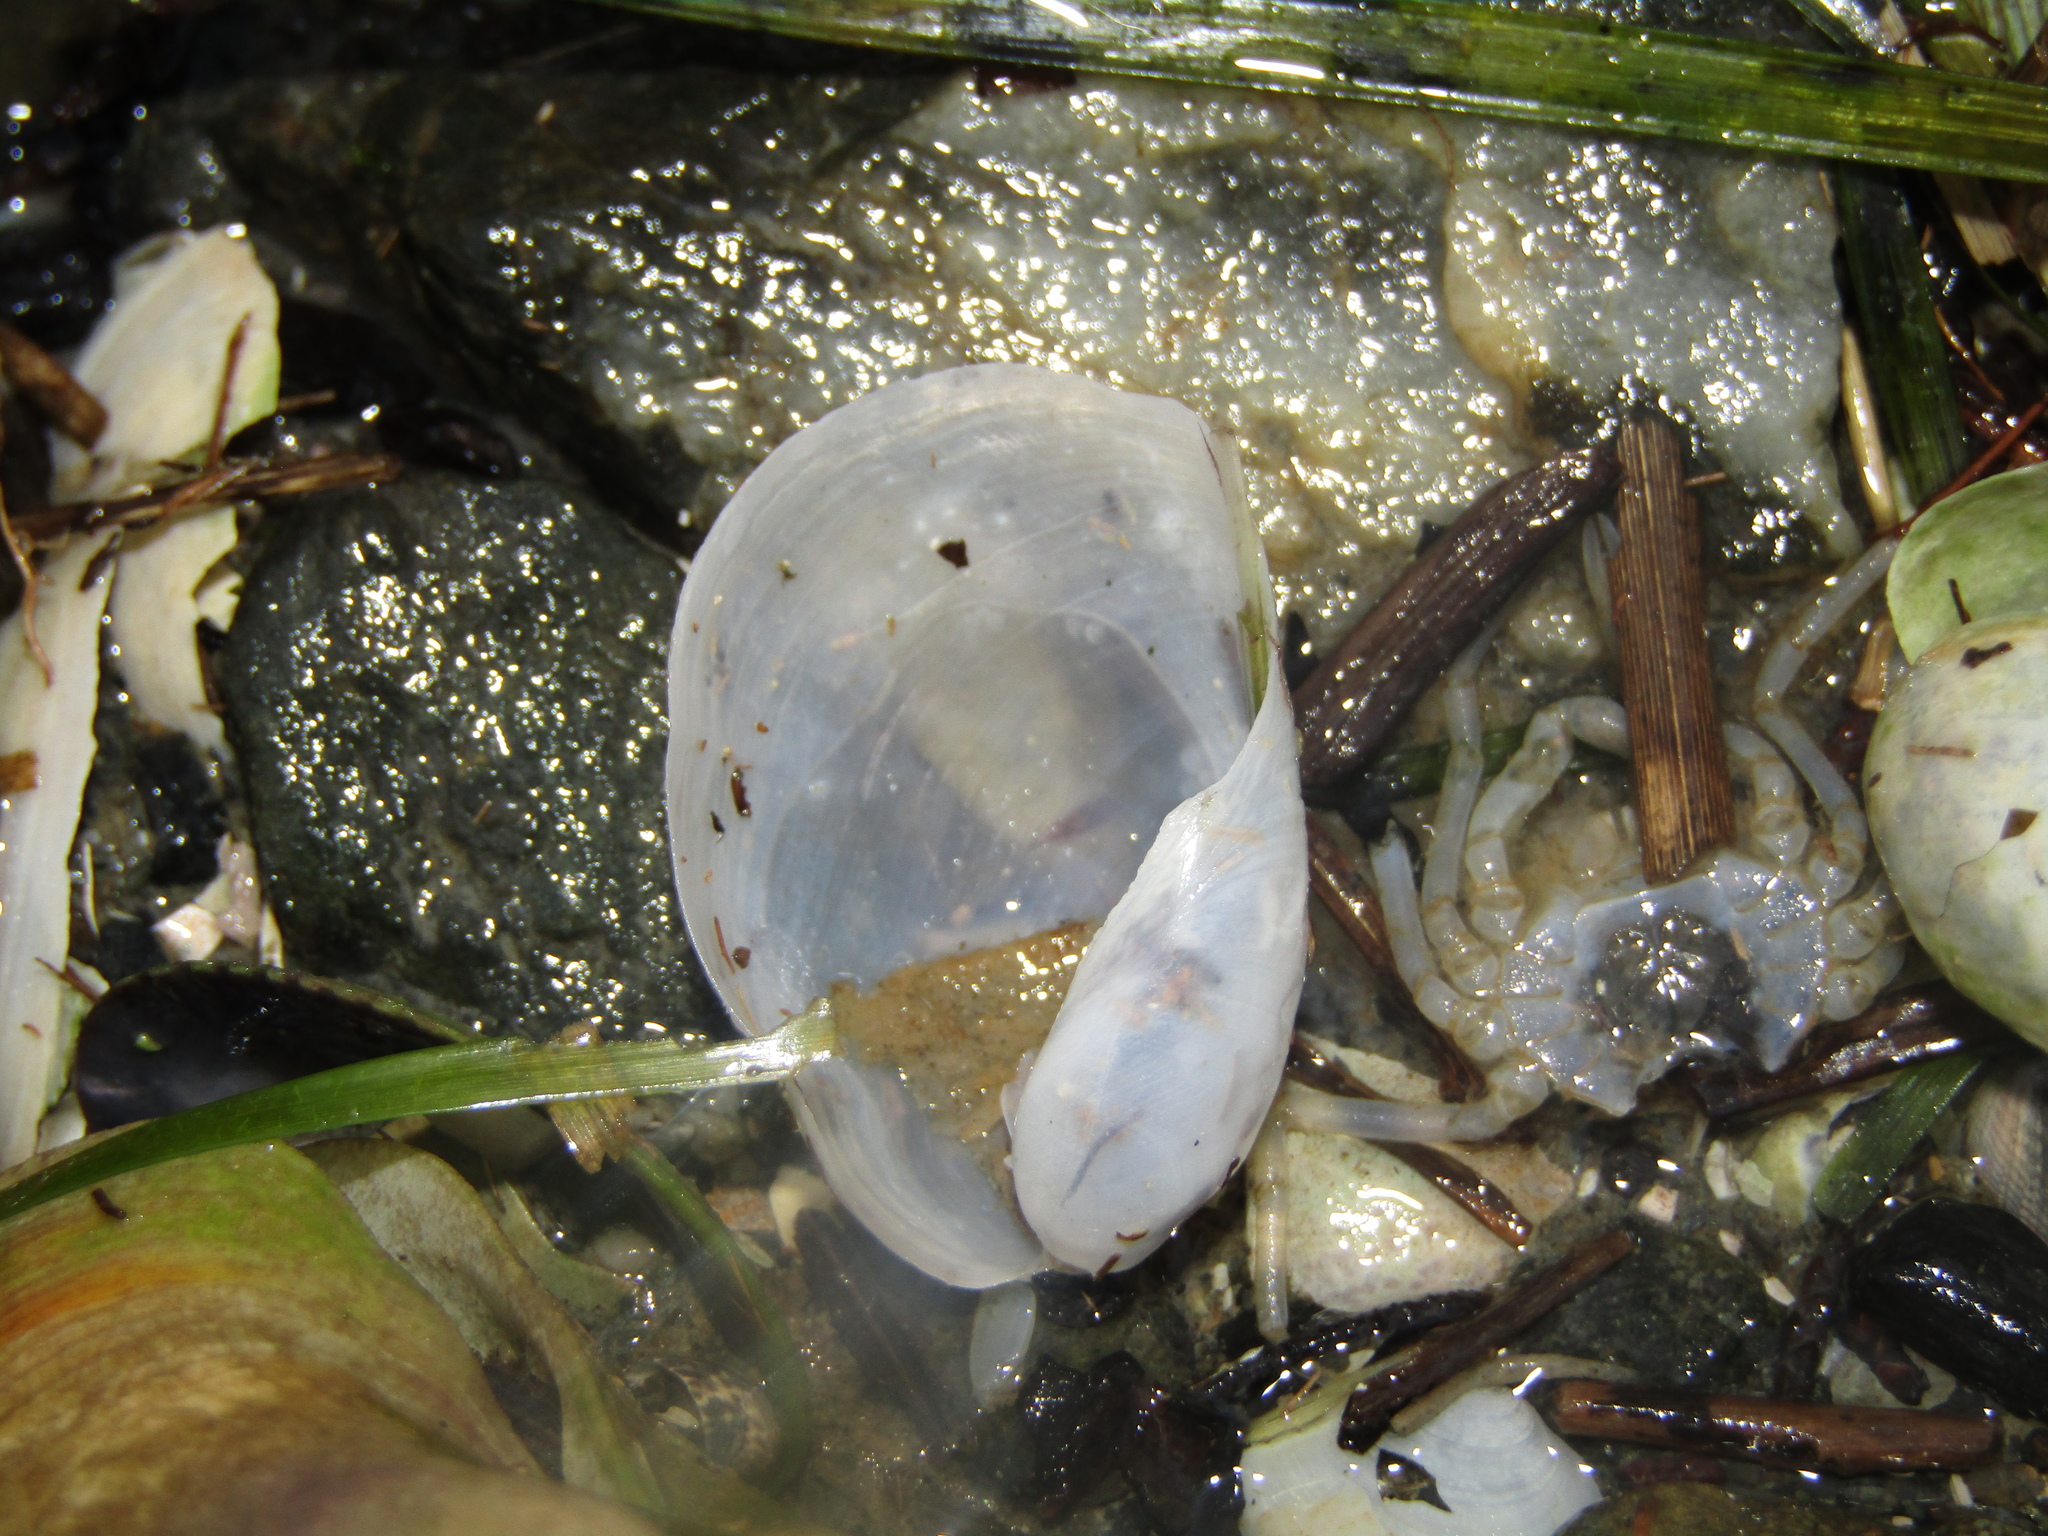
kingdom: Animalia
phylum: Mollusca
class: Gastropoda
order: Cephalaspidea
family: Philinidae
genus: Philine
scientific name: Philine angasi
